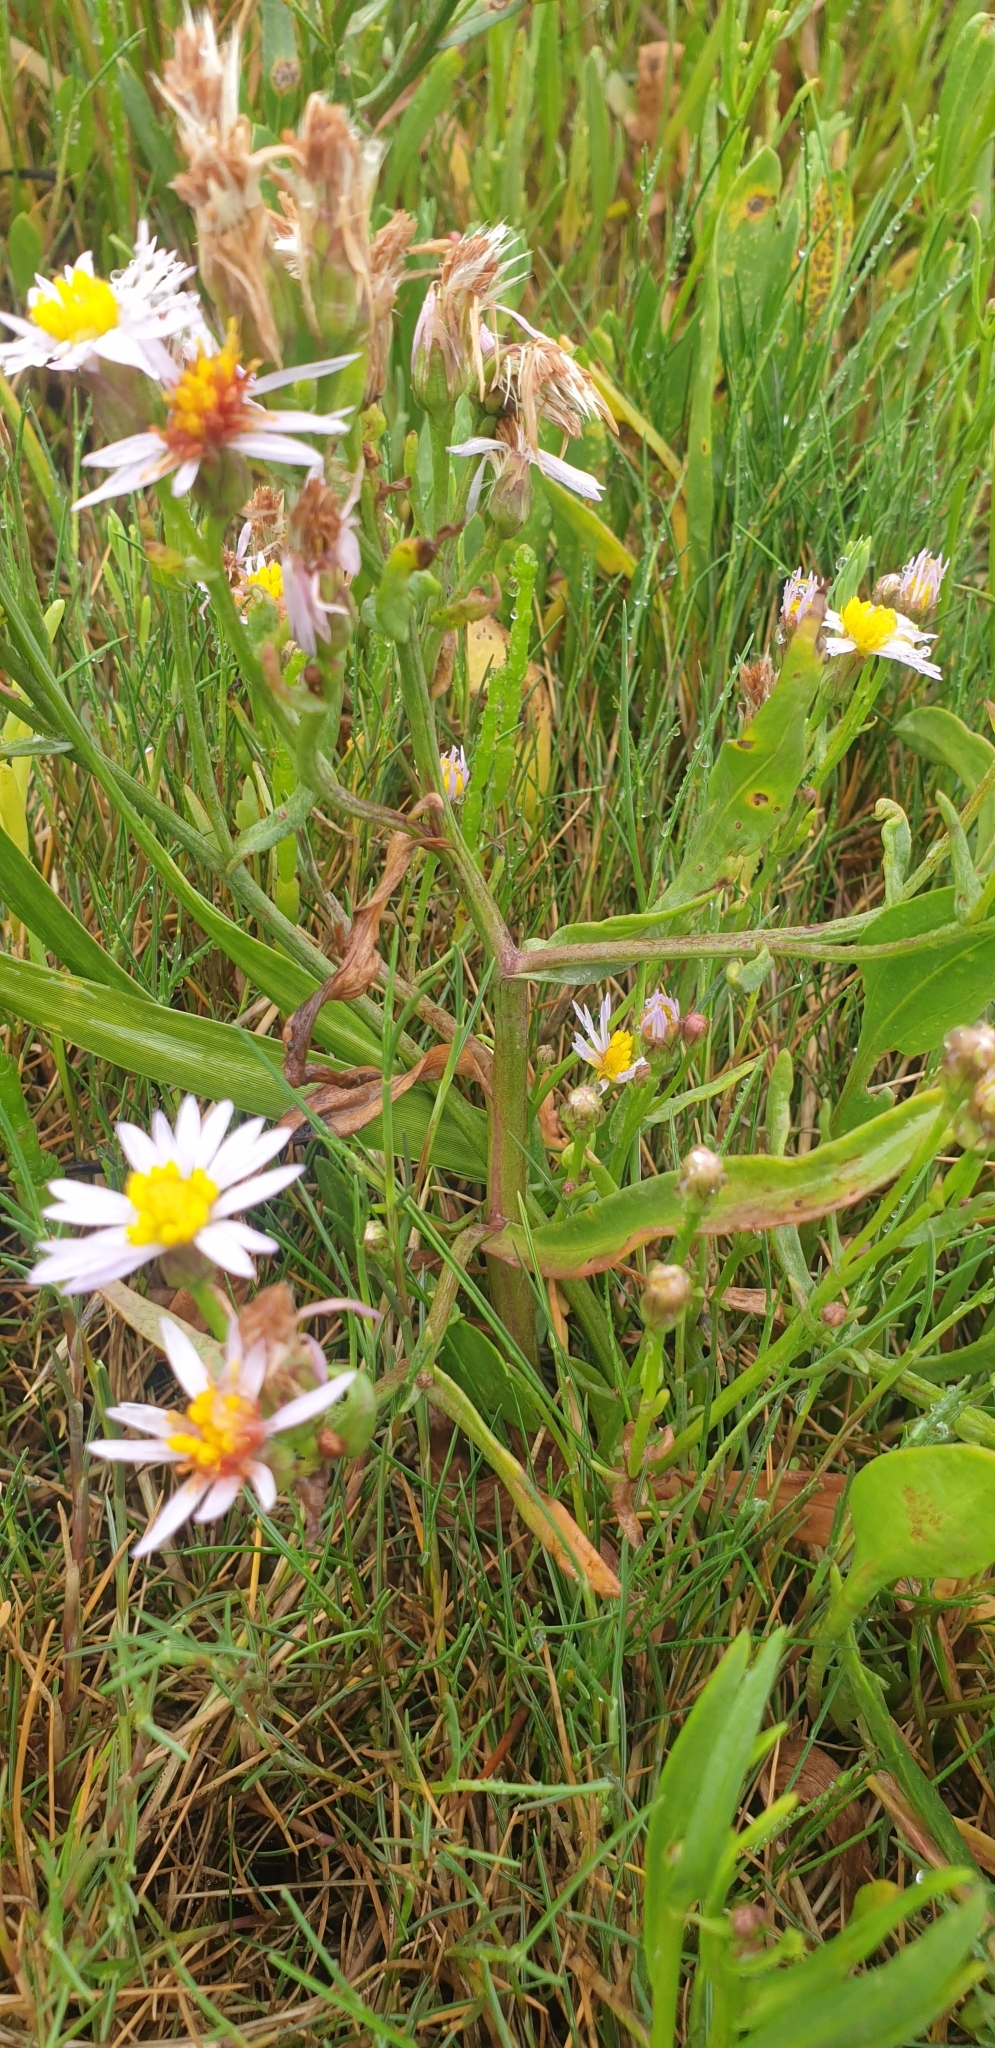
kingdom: Plantae
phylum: Tracheophyta
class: Magnoliopsida
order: Asterales
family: Asteraceae
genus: Tripolium
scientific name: Tripolium pannonicum
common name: Sea aster
